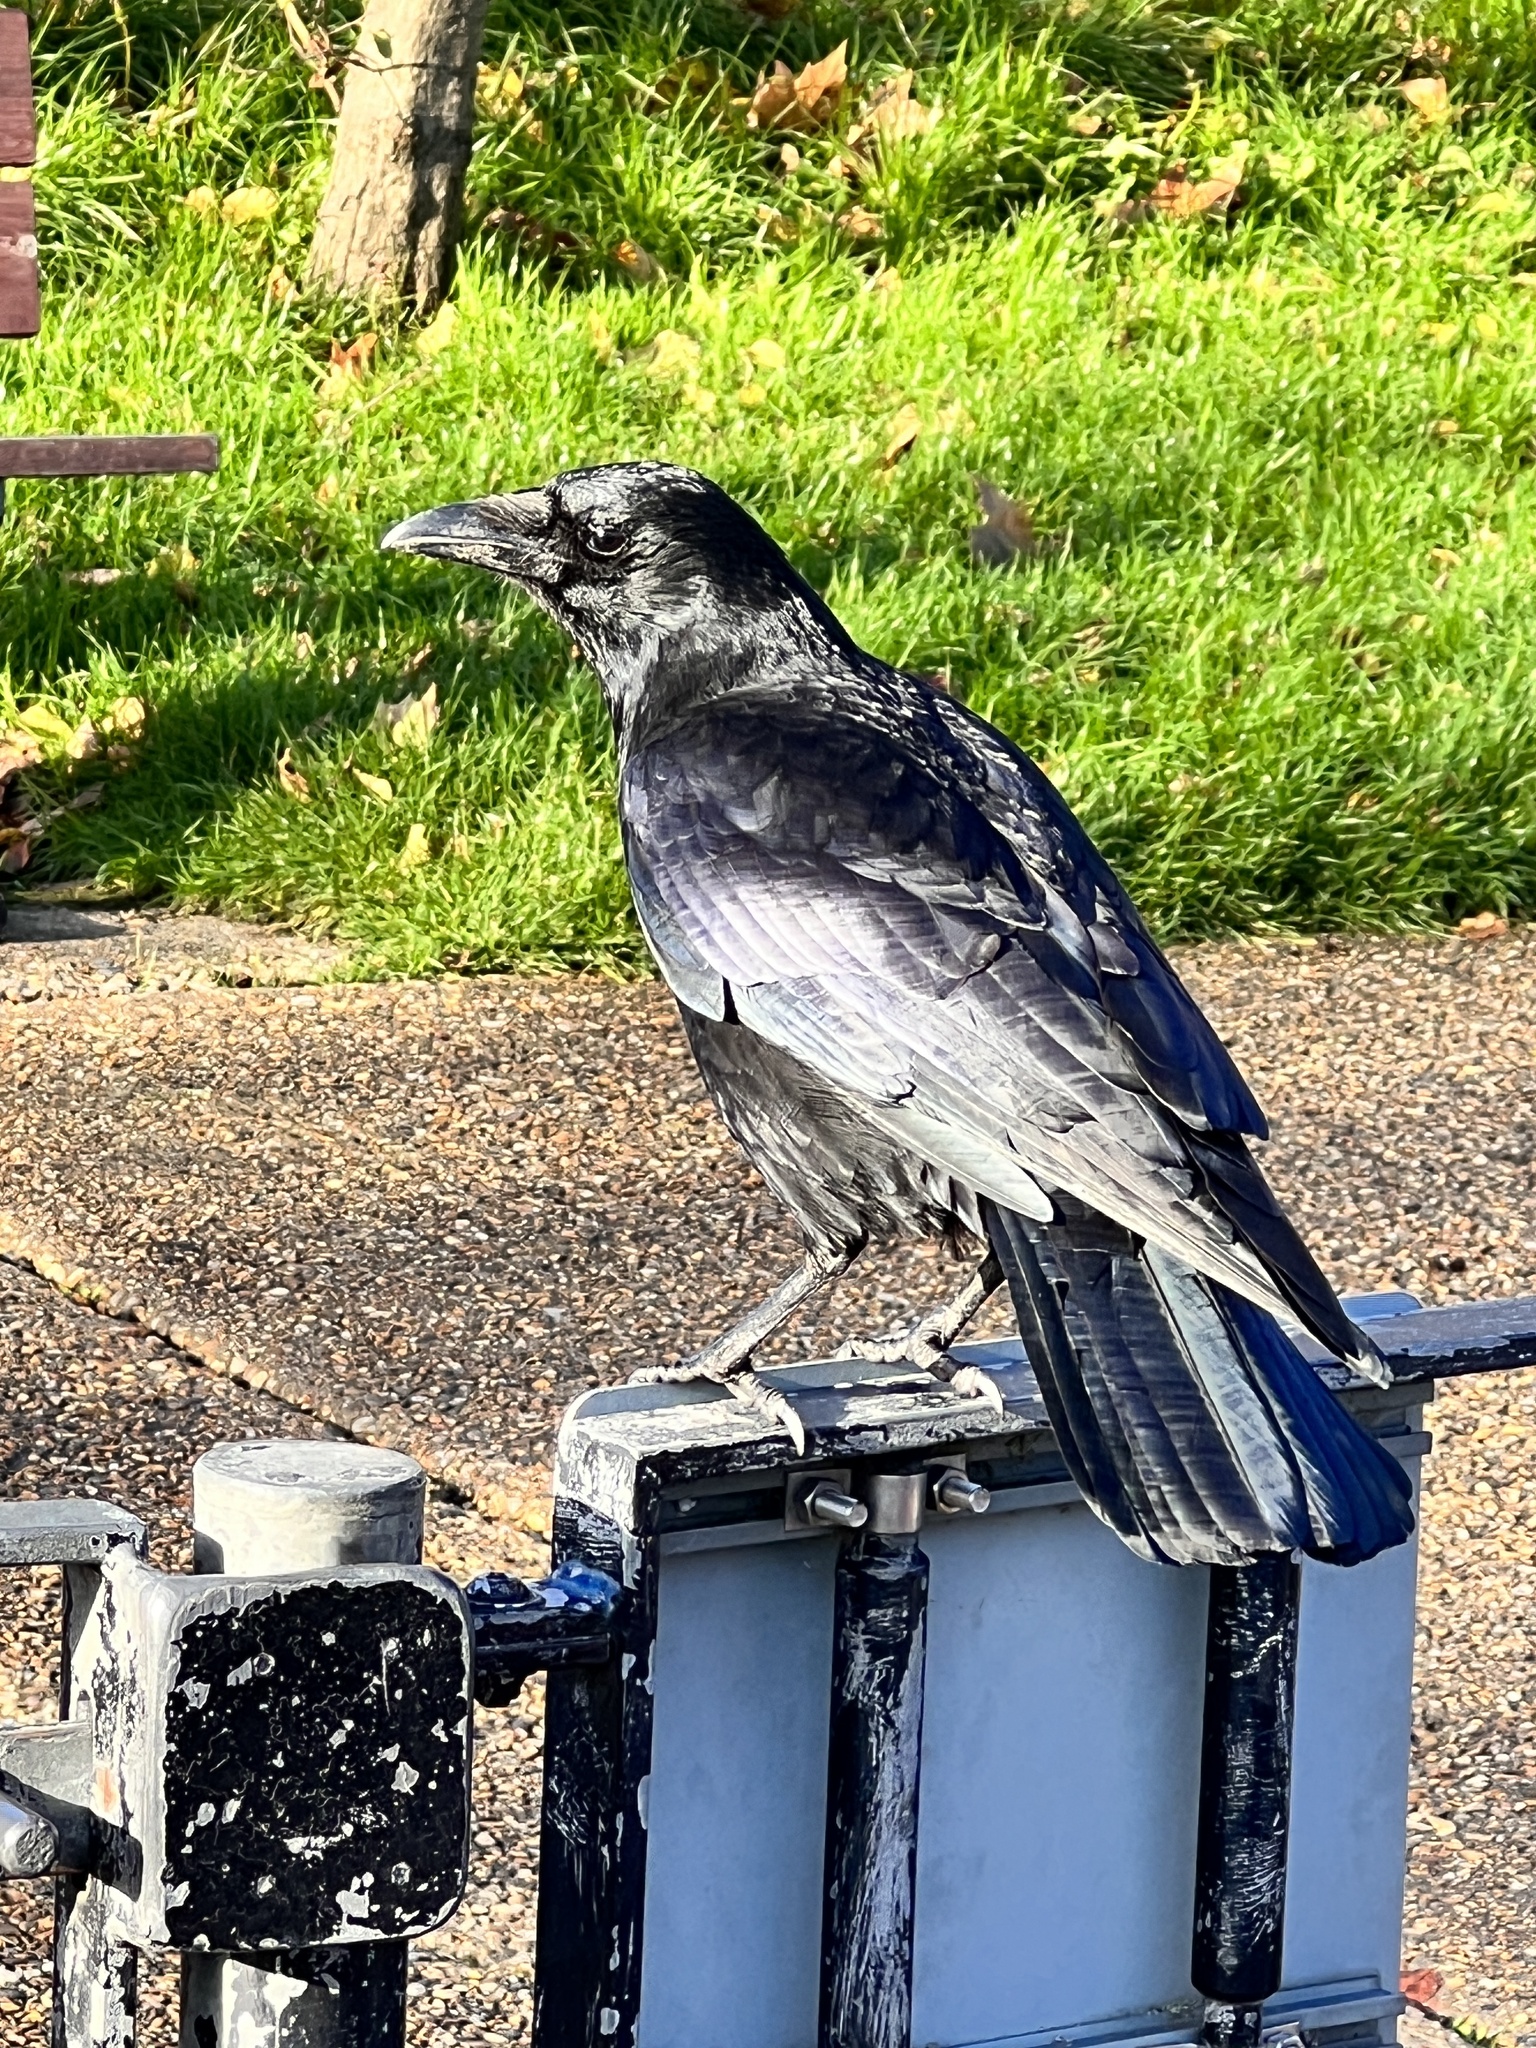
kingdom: Animalia
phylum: Chordata
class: Aves
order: Passeriformes
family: Corvidae
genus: Corvus
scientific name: Corvus corone
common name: Carrion crow
